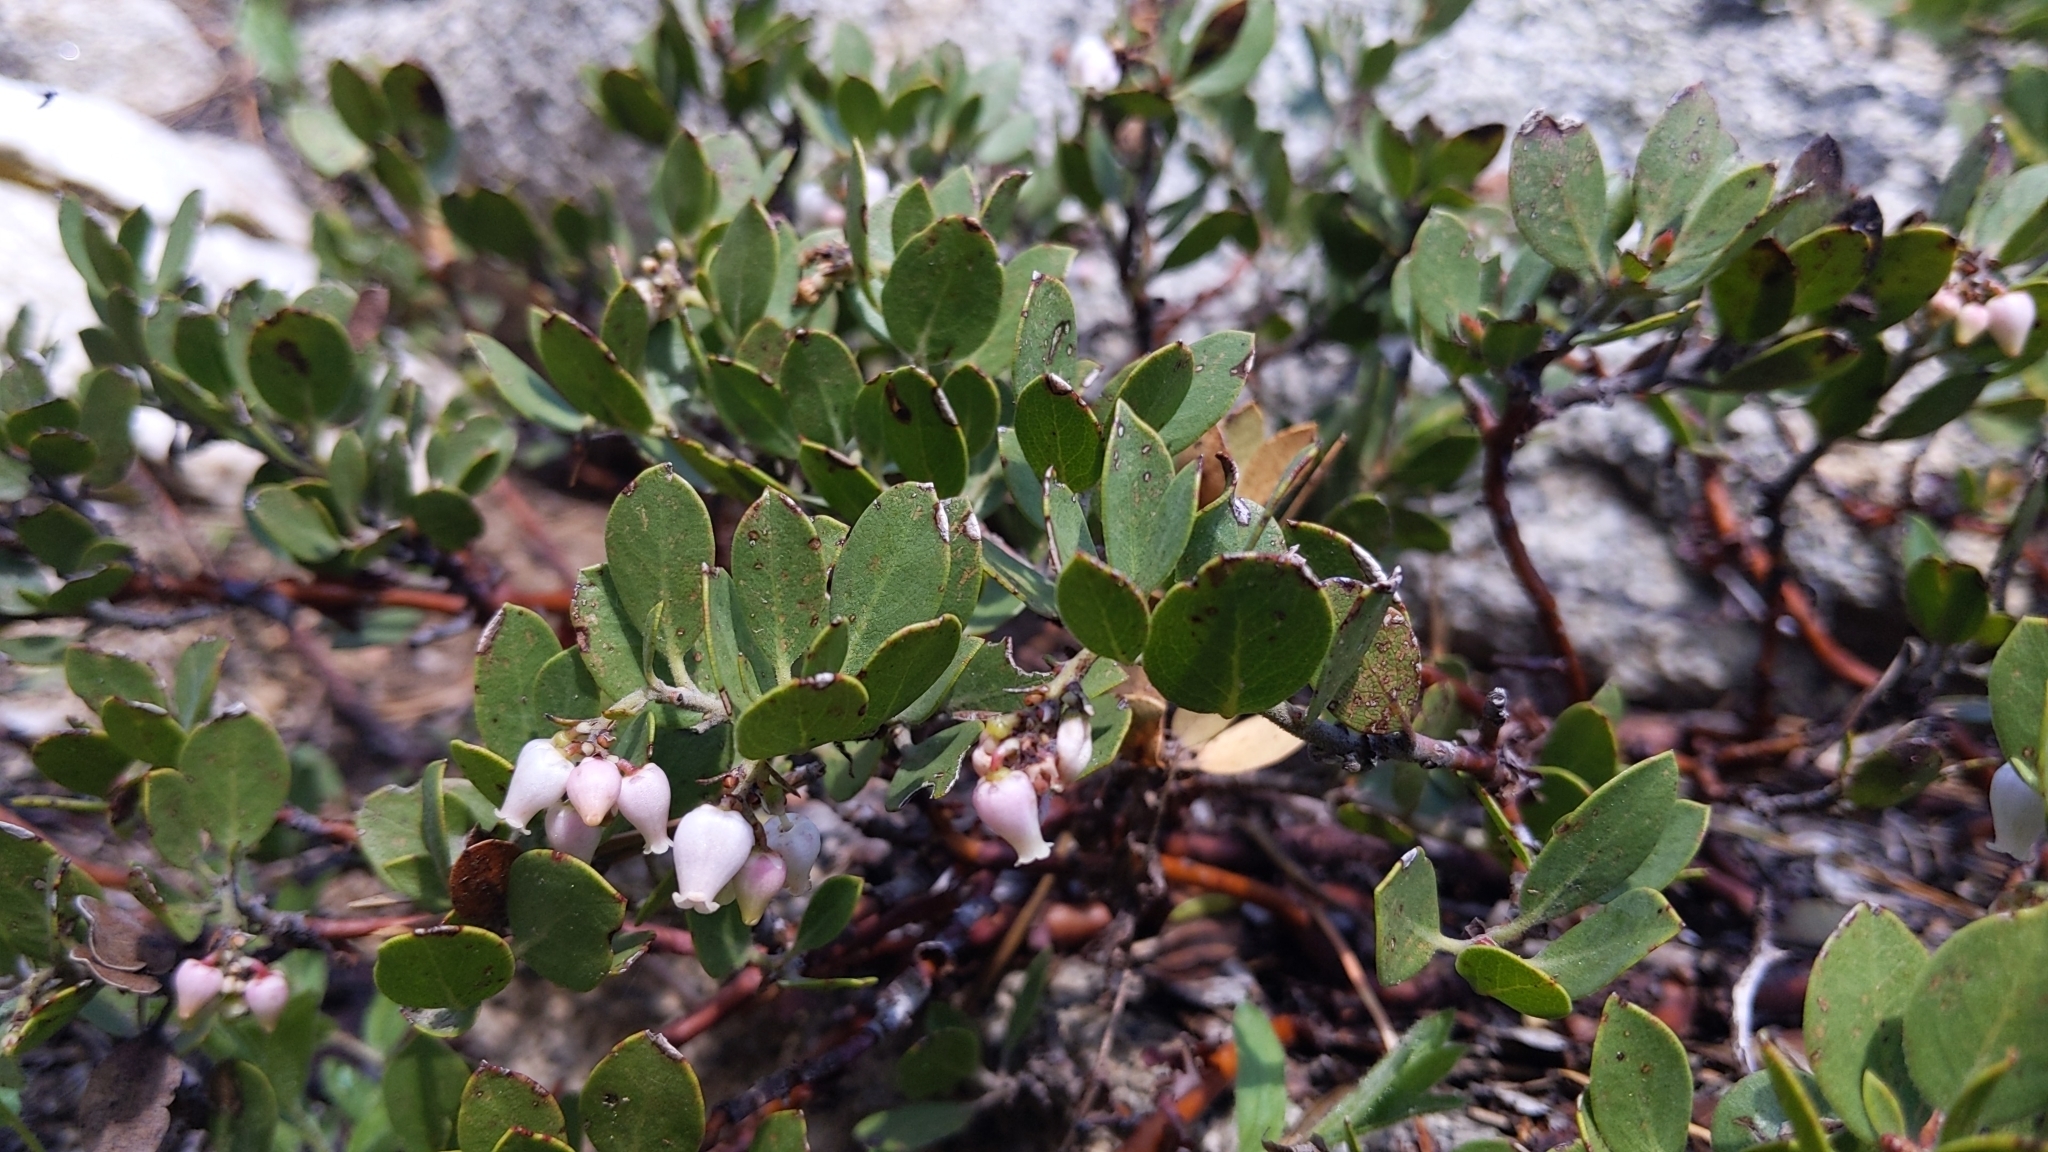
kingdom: Plantae
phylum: Tracheophyta
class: Magnoliopsida
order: Ericales
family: Ericaceae
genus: Arctostaphylos
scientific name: Arctostaphylos nevadensis
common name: Pinemat manzanita
